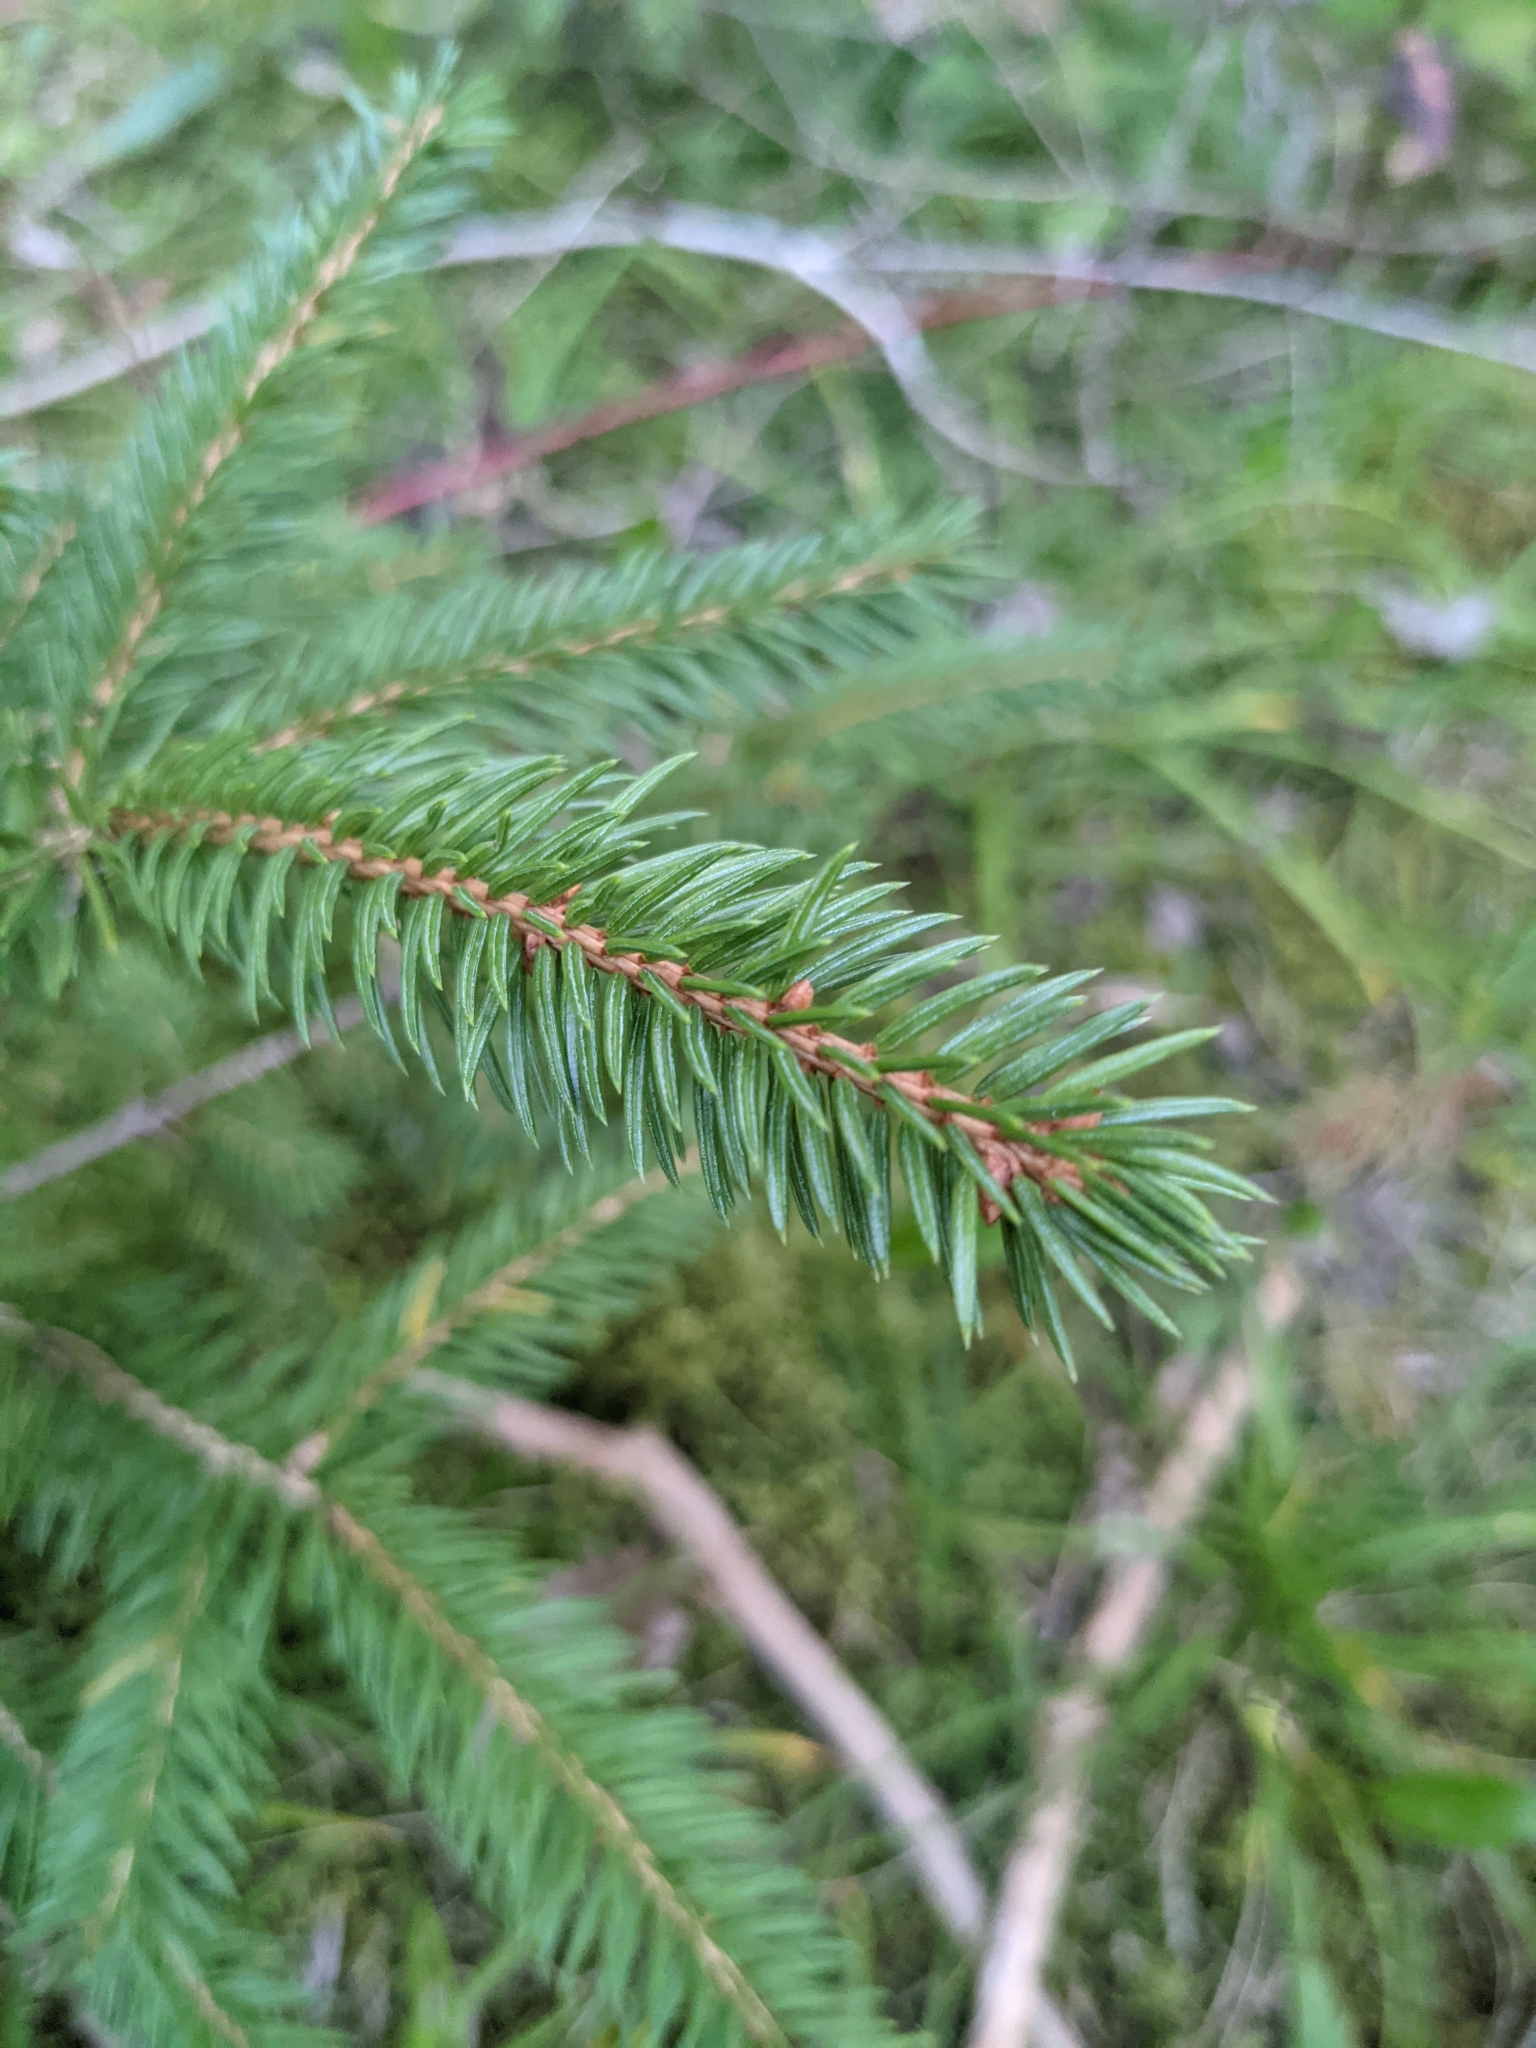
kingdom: Plantae
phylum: Tracheophyta
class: Pinopsida
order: Pinales
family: Pinaceae
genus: Picea
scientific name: Picea abies
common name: Norway spruce
